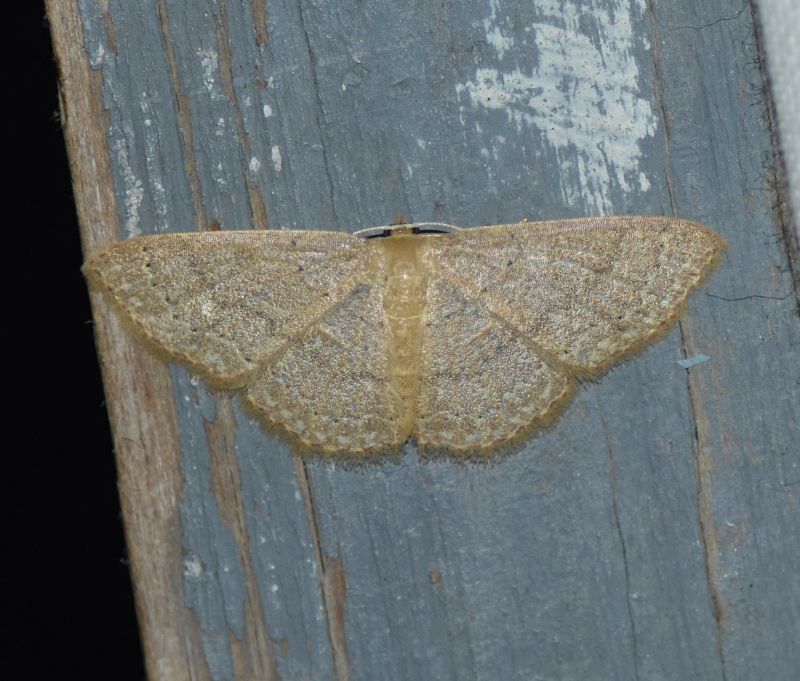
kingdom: Animalia
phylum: Arthropoda
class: Insecta
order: Lepidoptera
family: Geometridae
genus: Pleuroprucha
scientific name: Pleuroprucha insulsaria
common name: Common tan wave
